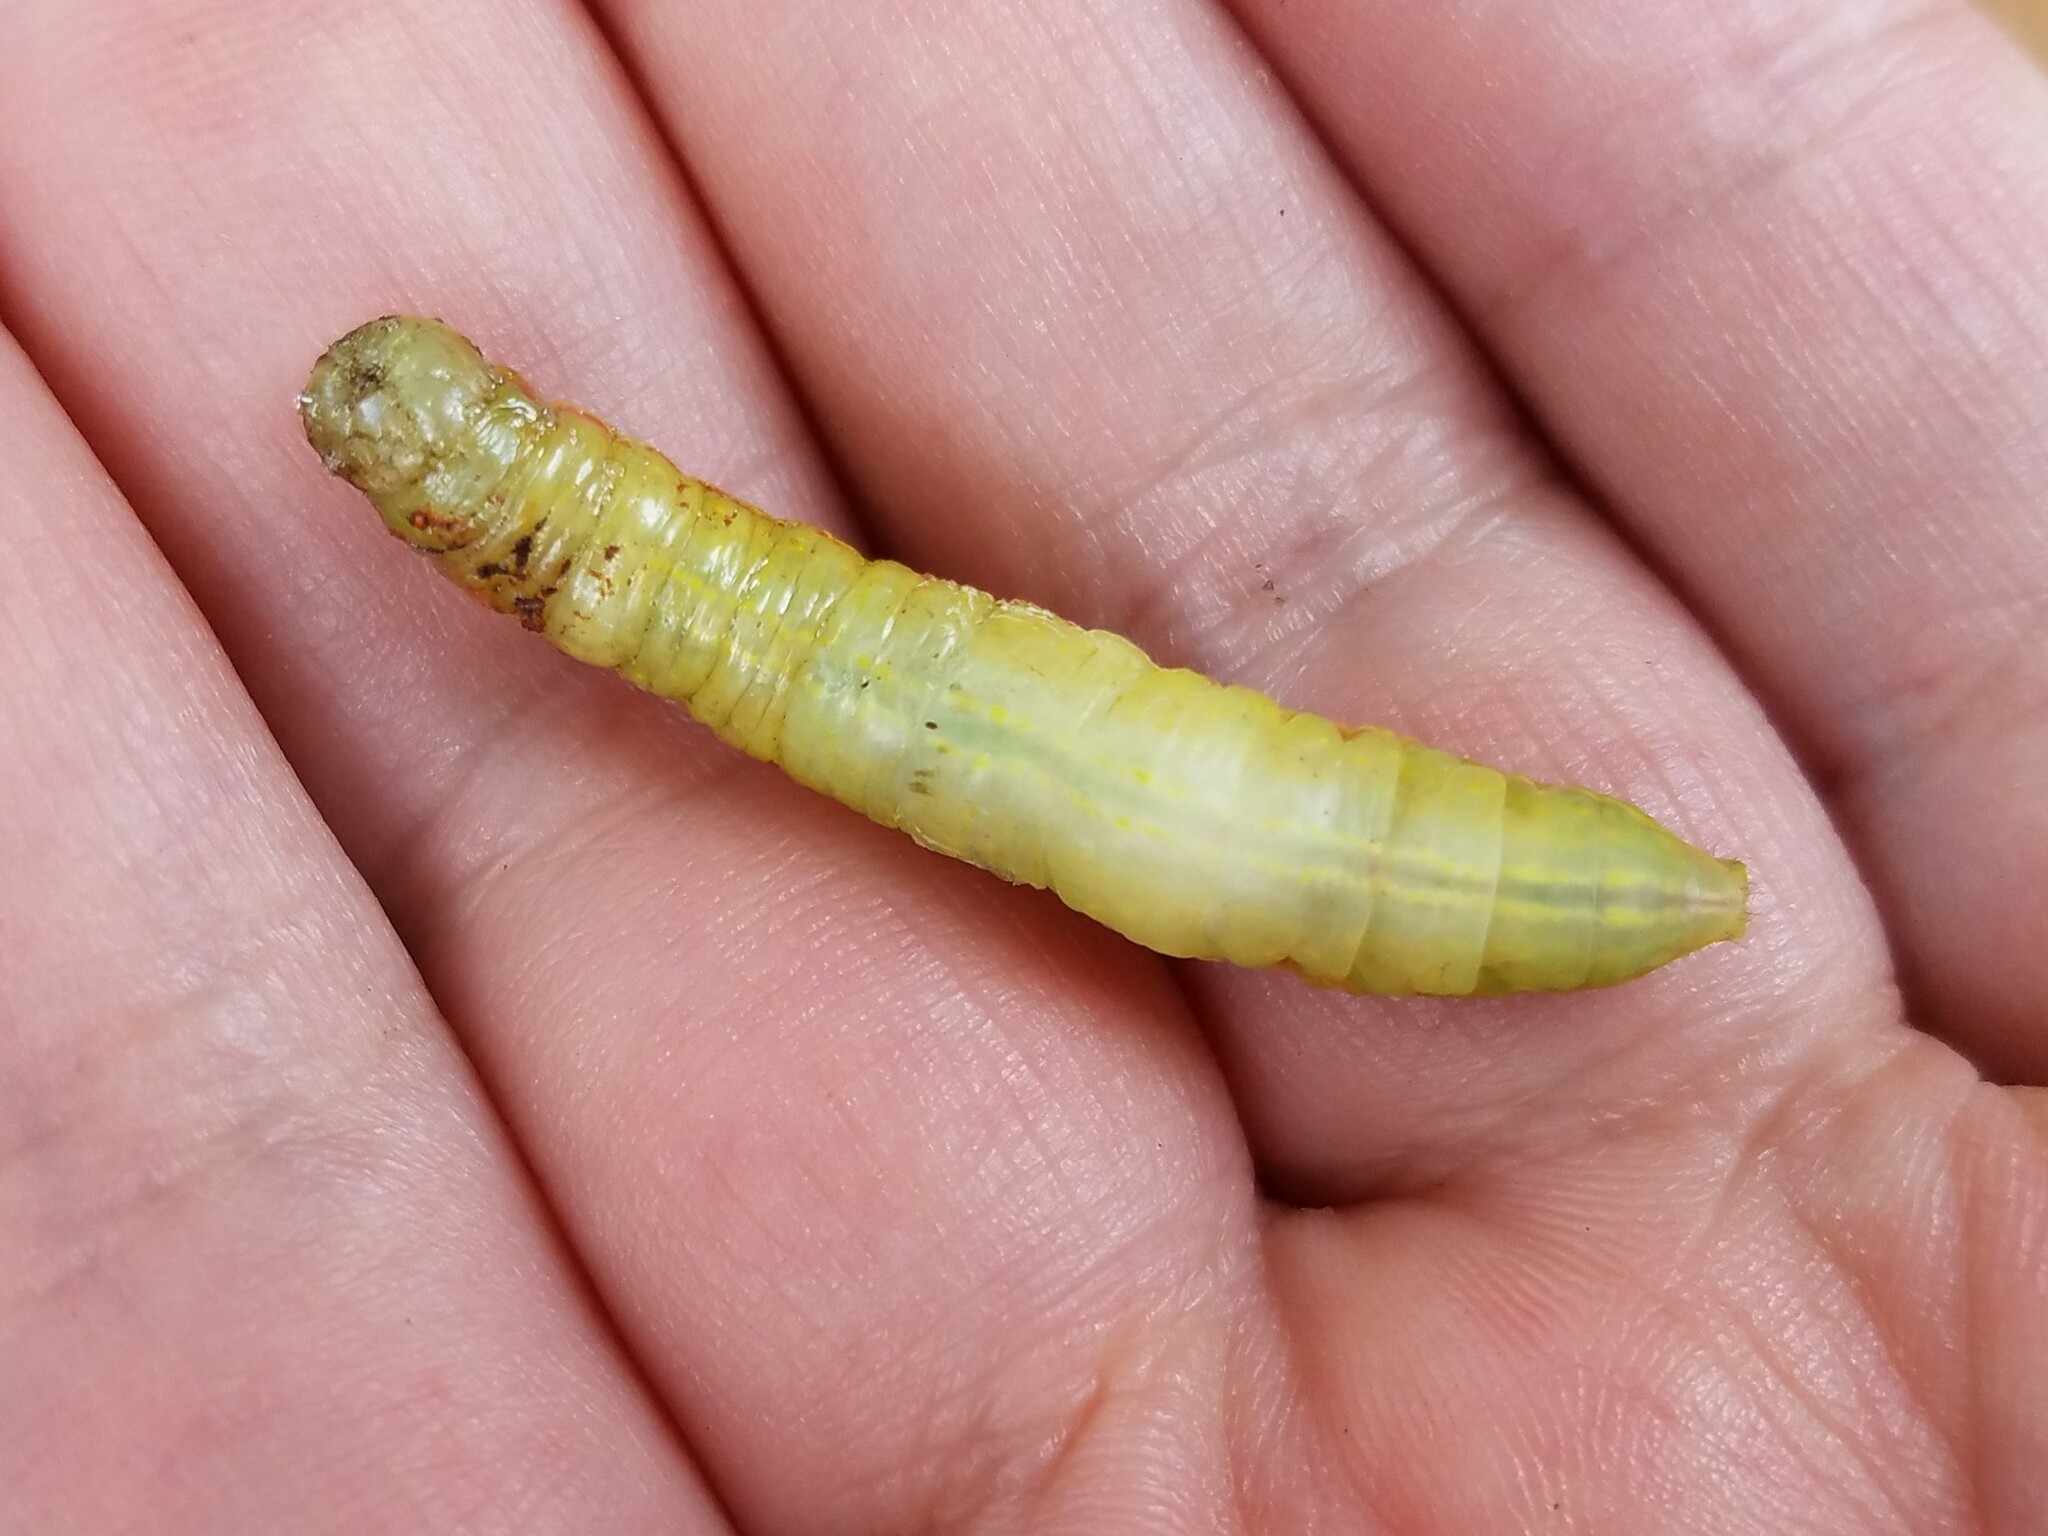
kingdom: Animalia
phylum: Arthropoda
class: Insecta
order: Lepidoptera
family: Notodontidae
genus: Peridea
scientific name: Peridea angulosa
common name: Angulose prominent
